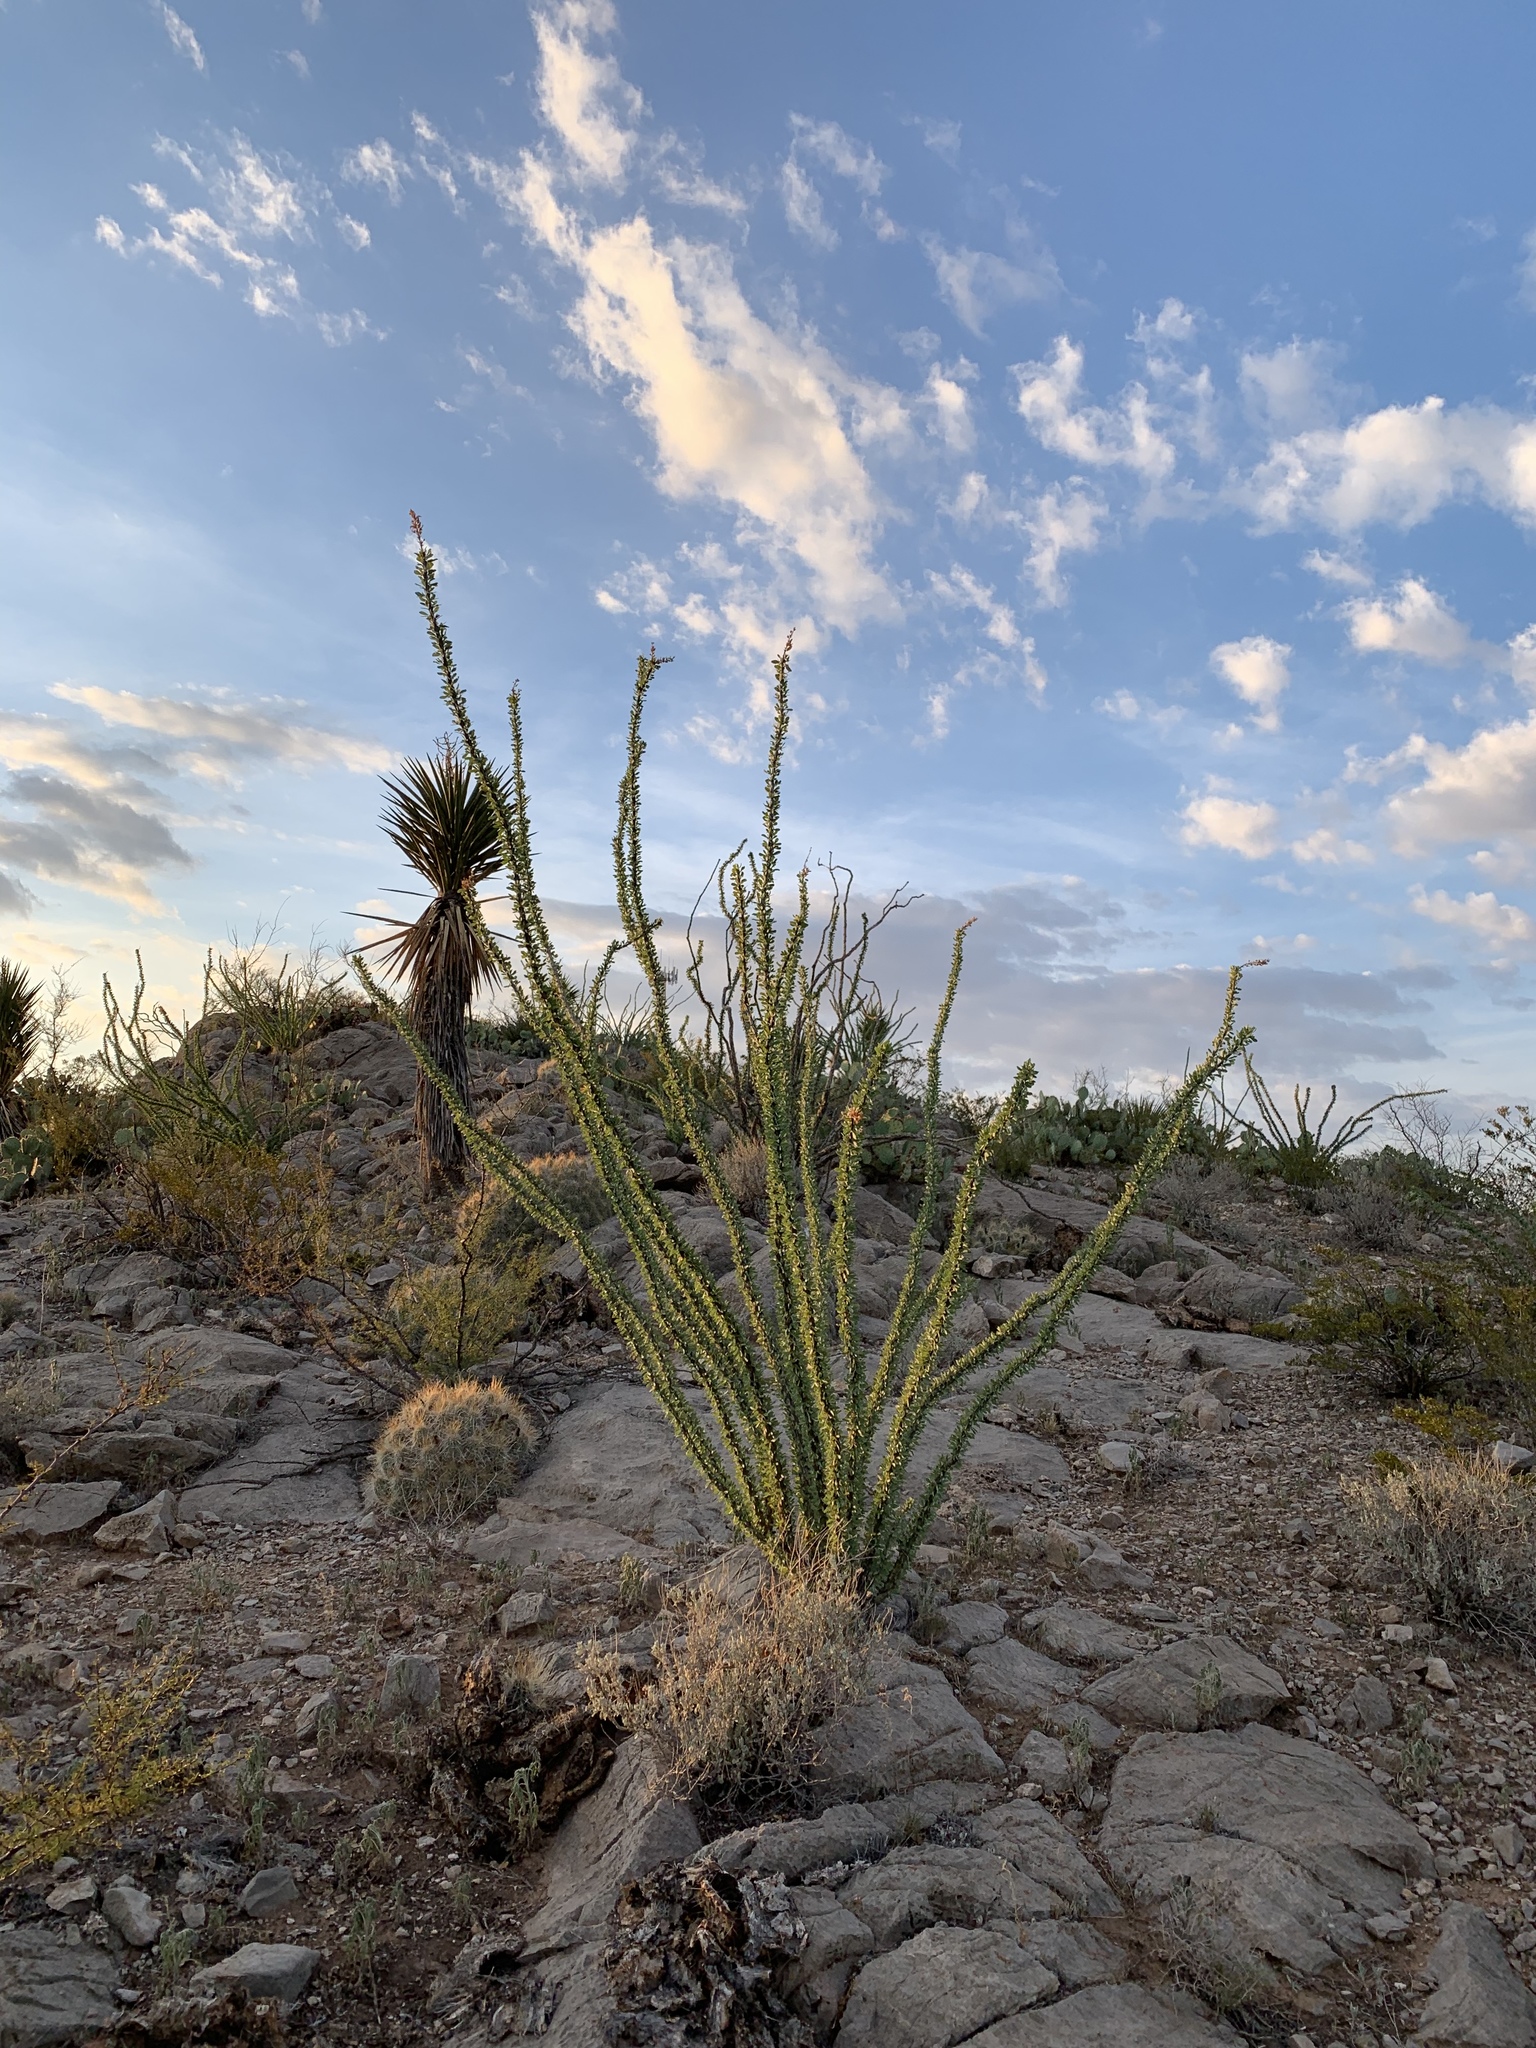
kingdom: Plantae
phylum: Tracheophyta
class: Magnoliopsida
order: Ericales
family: Fouquieriaceae
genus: Fouquieria
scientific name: Fouquieria splendens
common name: Vine-cactus
